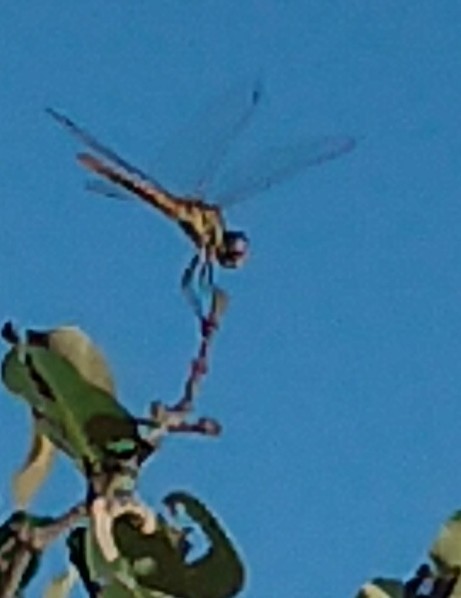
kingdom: Animalia
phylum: Arthropoda
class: Insecta
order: Odonata
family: Libellulidae
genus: Macrodiplax
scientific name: Macrodiplax cora
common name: Coastal glider
